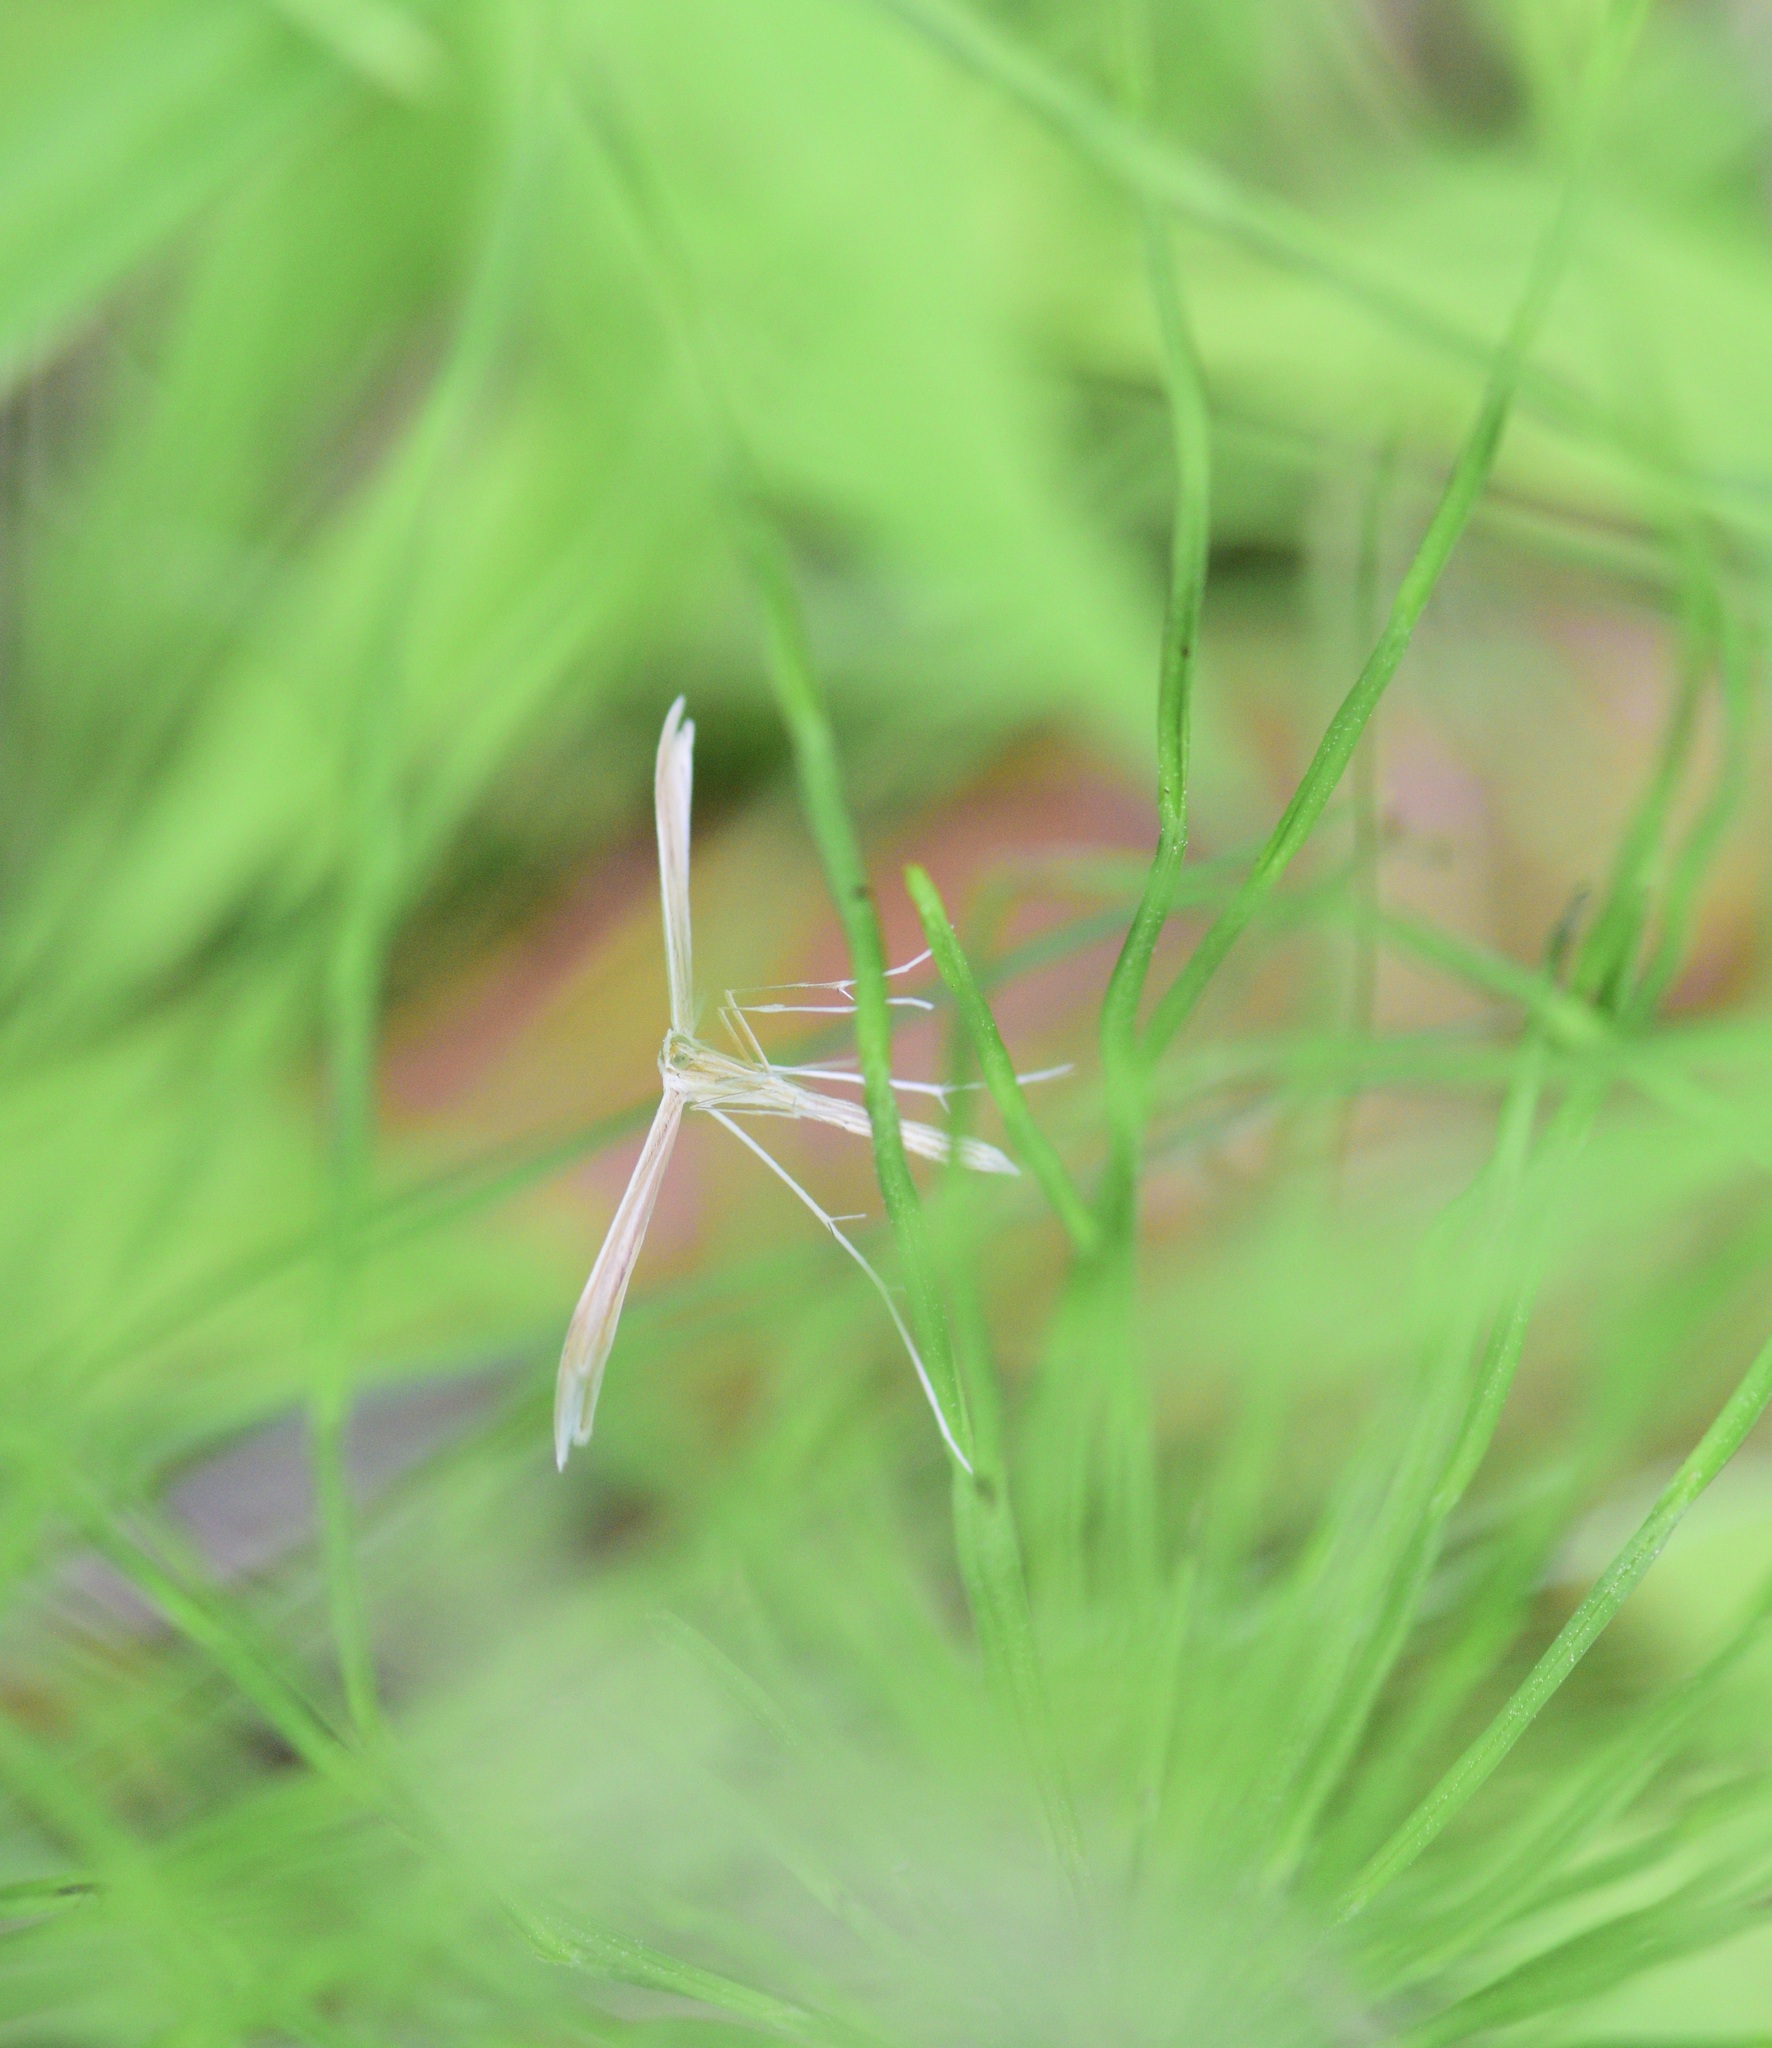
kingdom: Animalia
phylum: Arthropoda
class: Insecta
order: Lepidoptera
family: Pterophoridae
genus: Hellinsia
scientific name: Hellinsia
